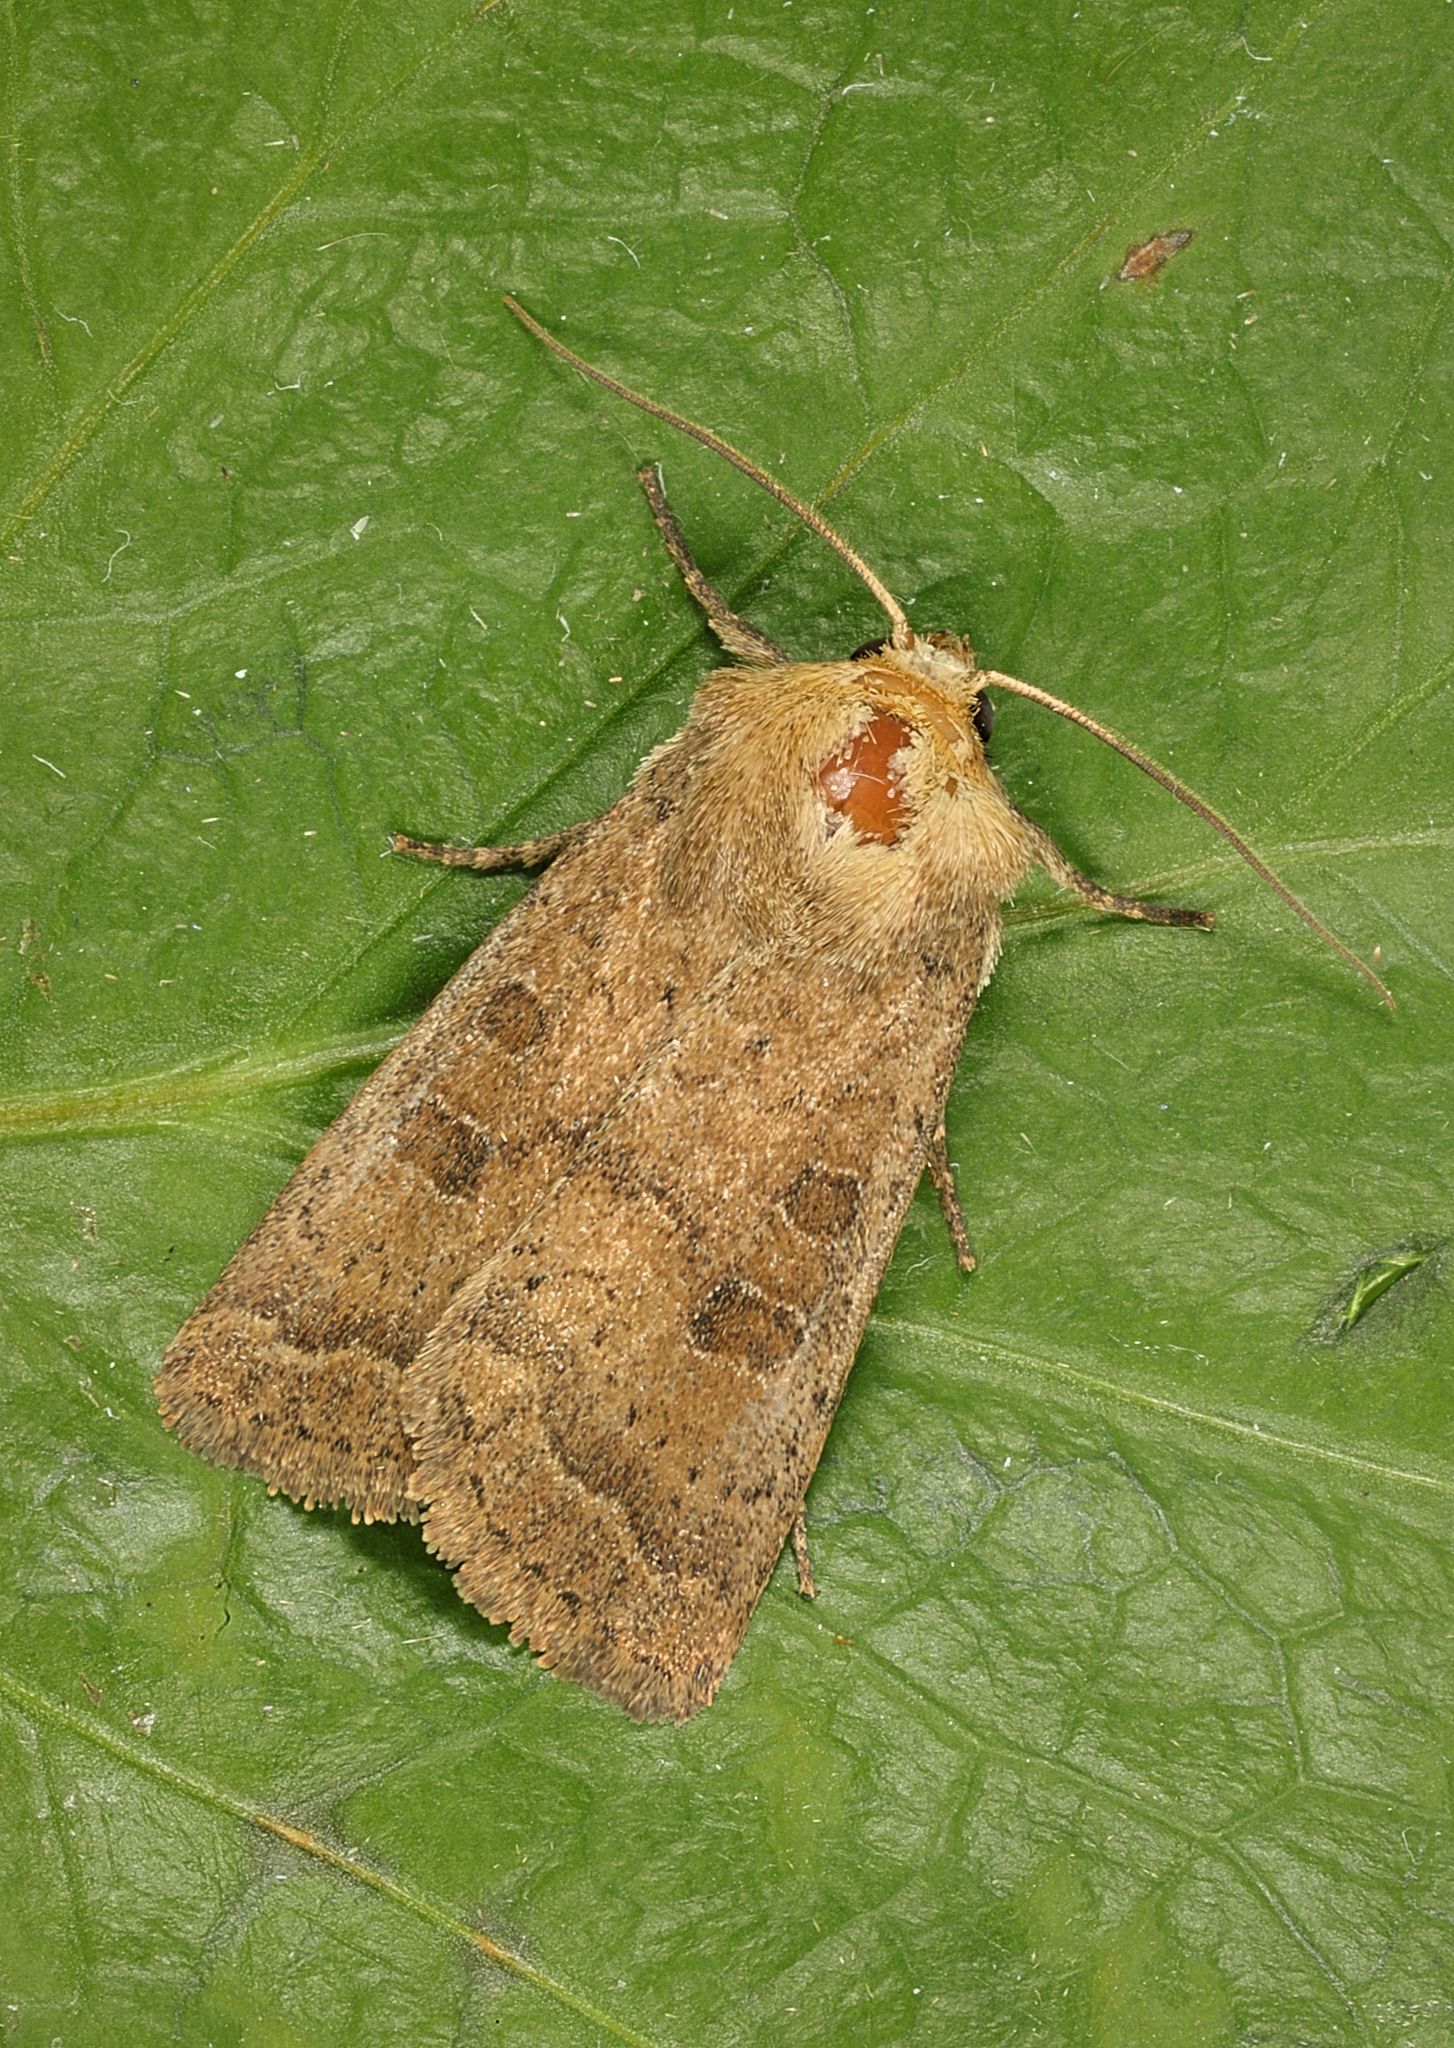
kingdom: Animalia
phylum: Arthropoda
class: Insecta
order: Lepidoptera
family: Noctuidae
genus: Hoplodrina
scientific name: Hoplodrina octogenaria
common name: Uncertain
